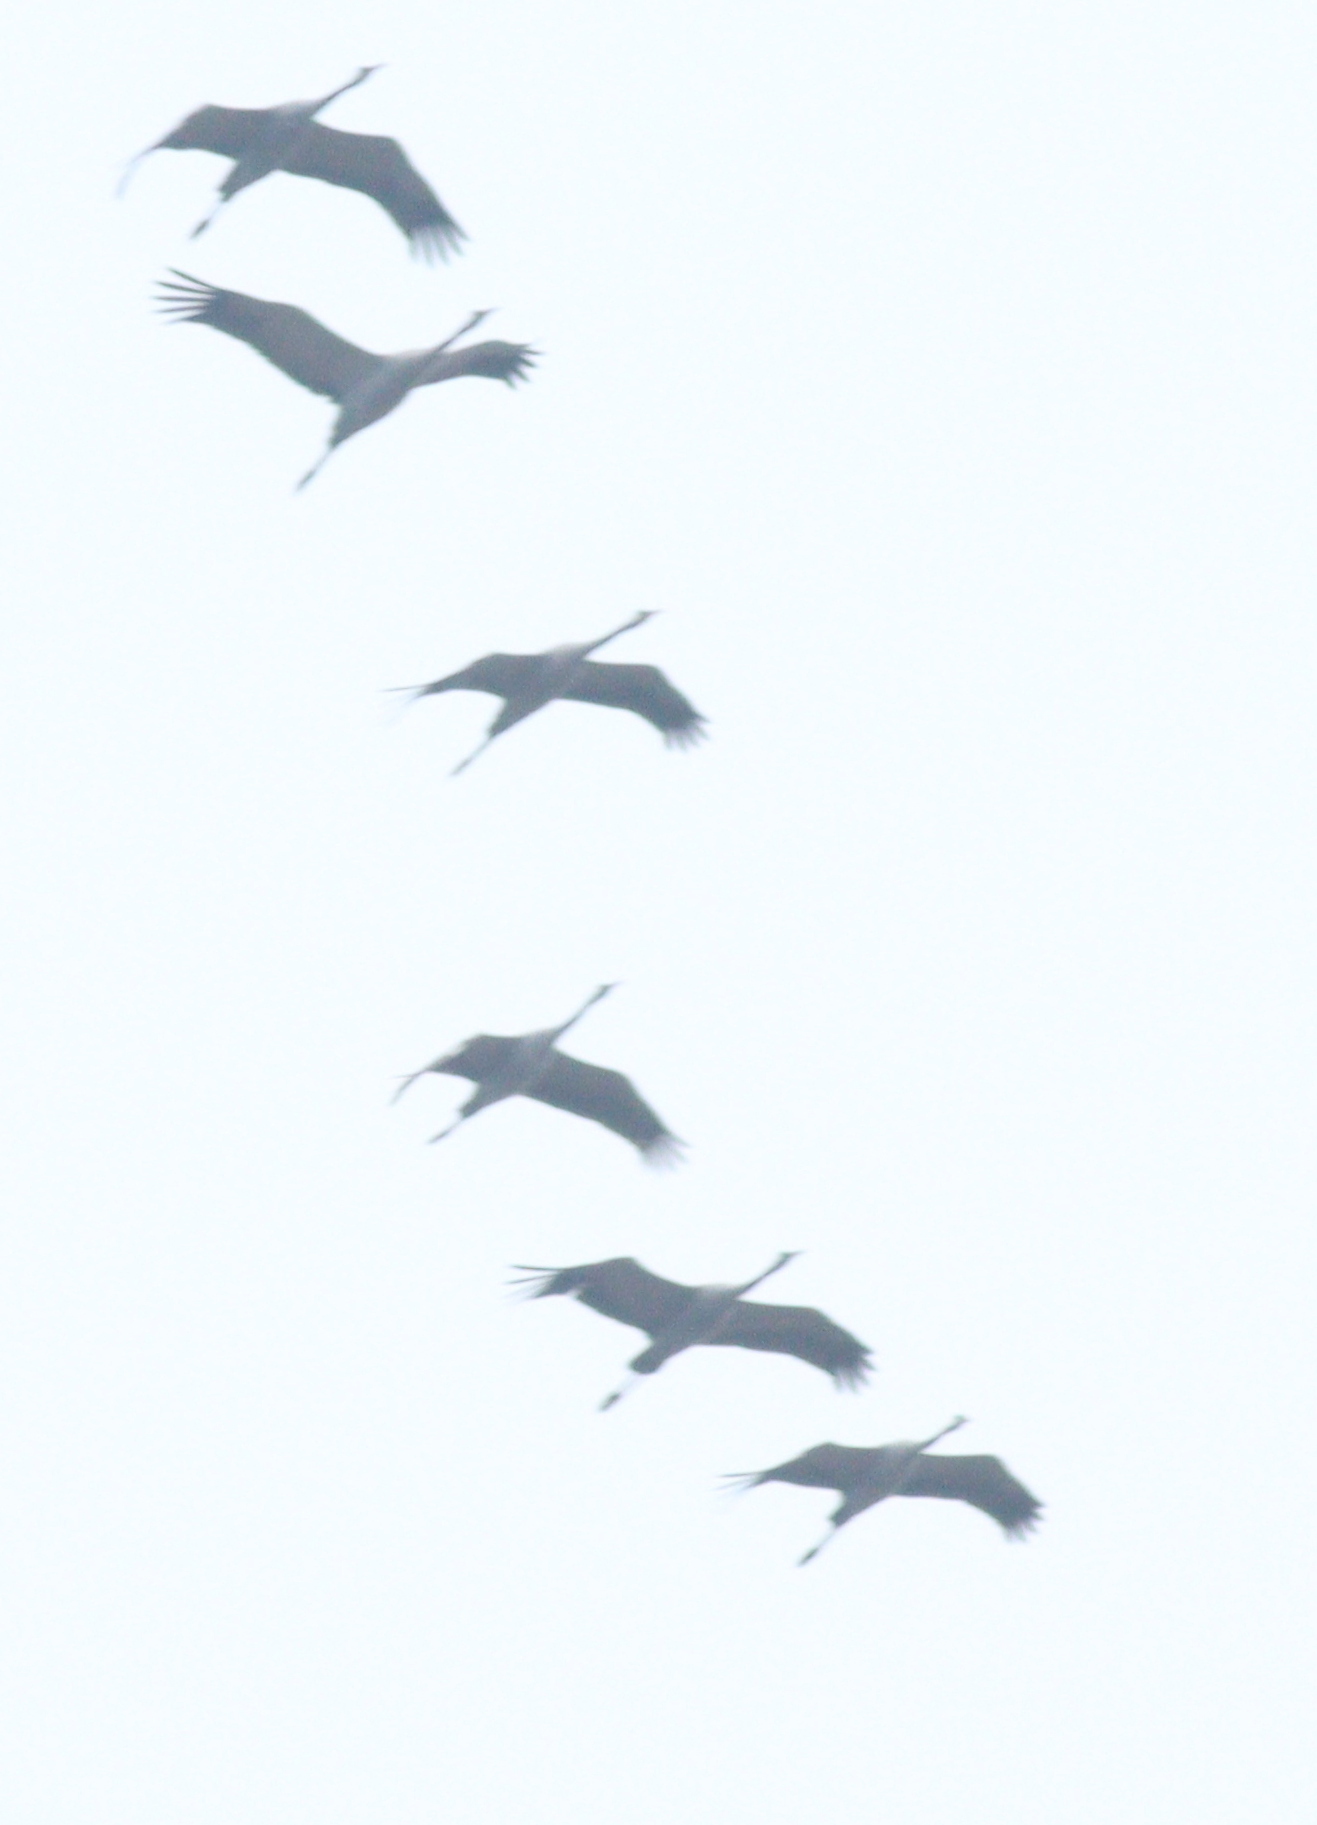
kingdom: Animalia
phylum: Chordata
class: Aves
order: Gruiformes
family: Gruidae
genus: Grus
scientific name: Grus grus
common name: Common crane
